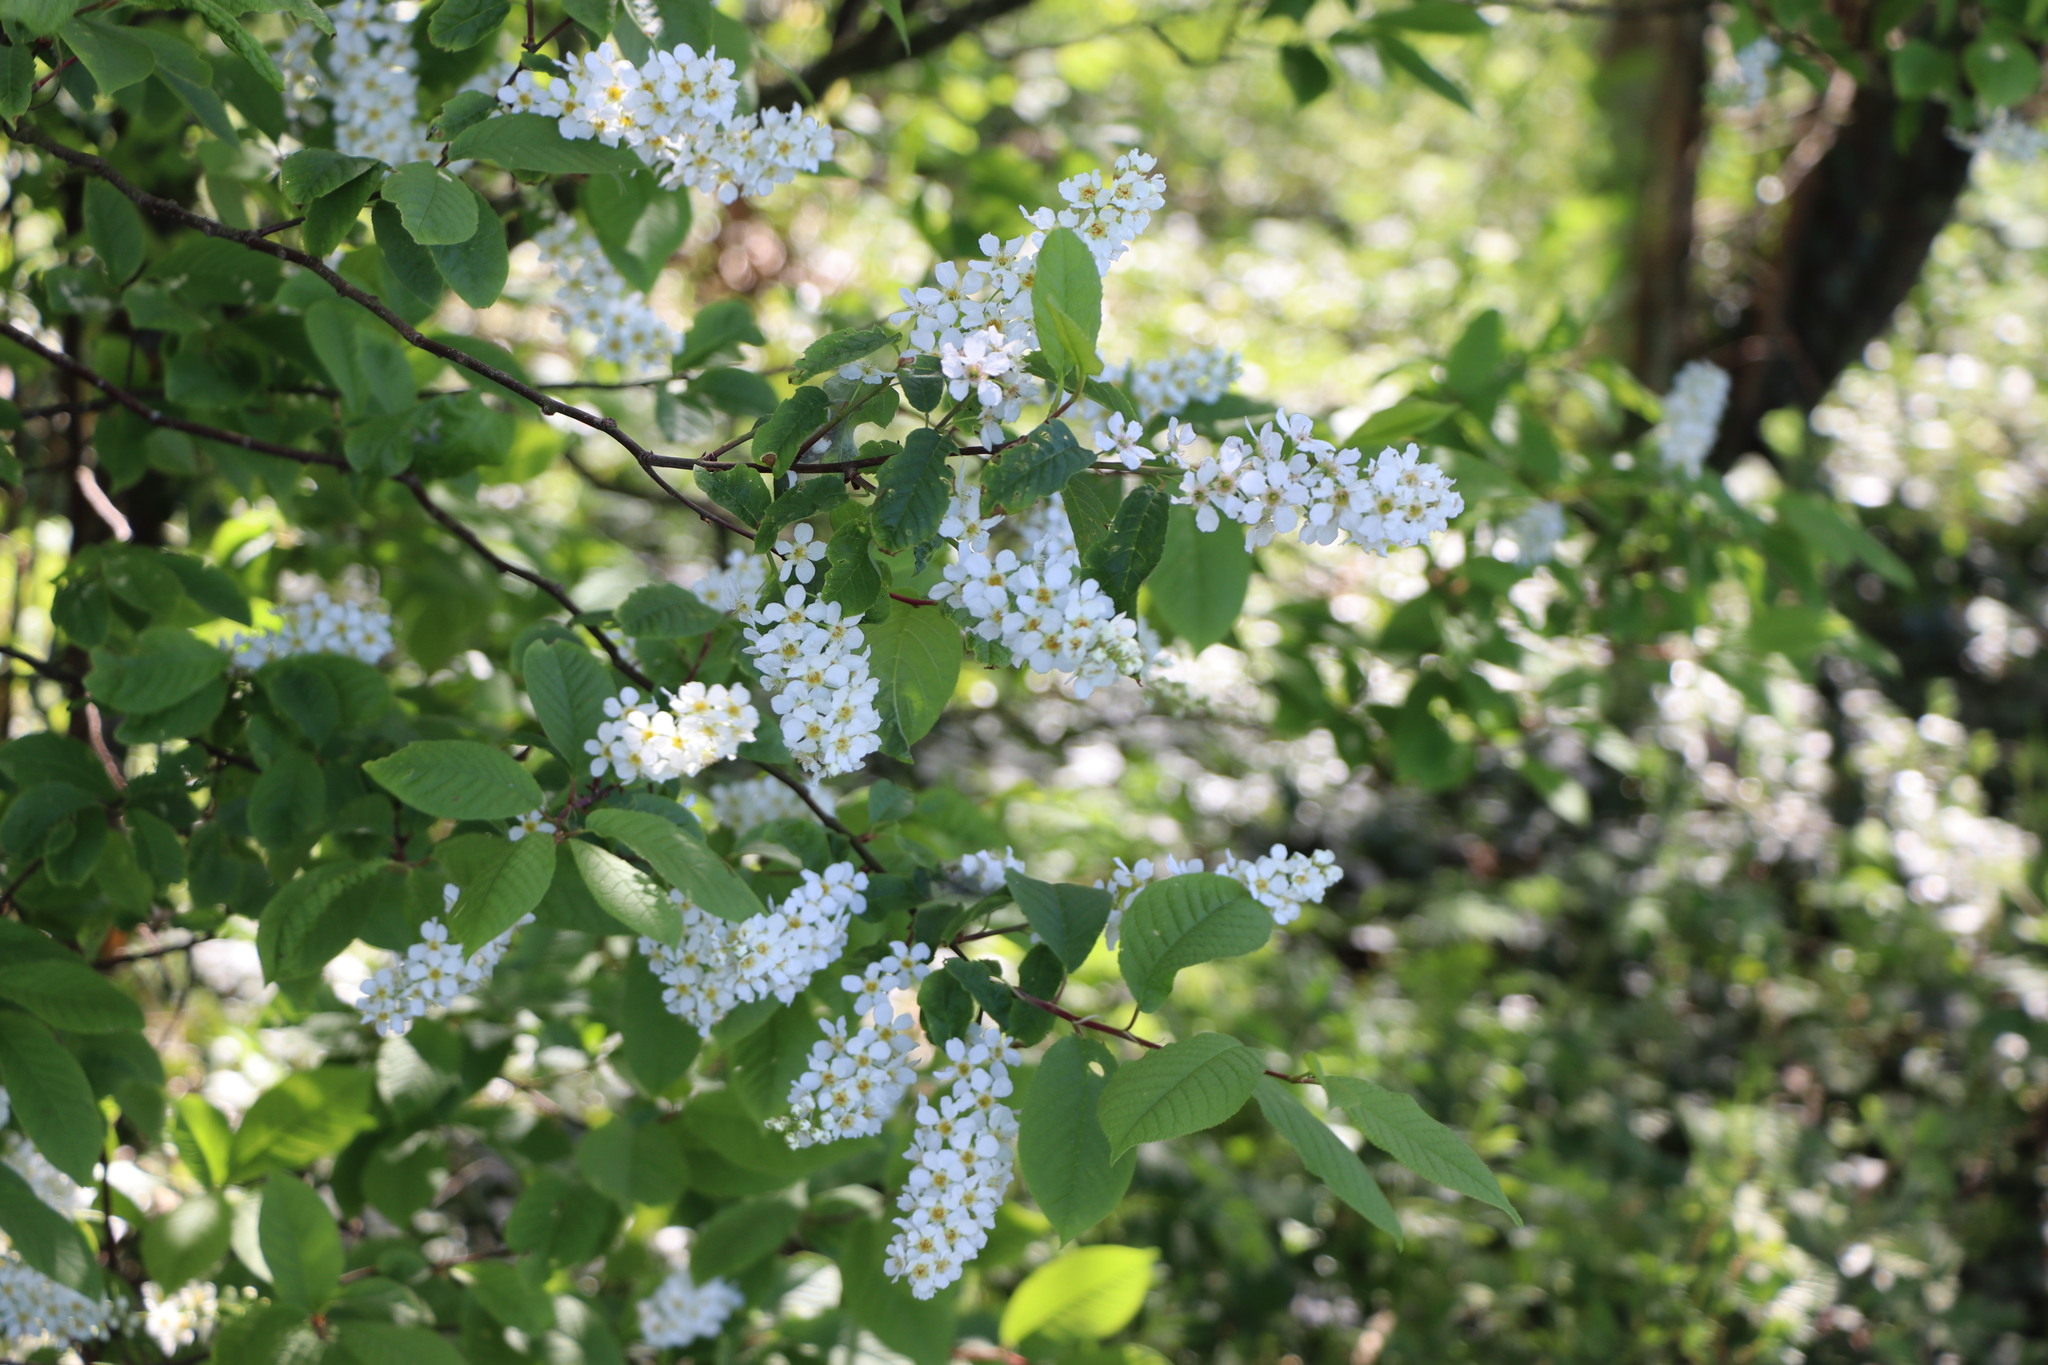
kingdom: Plantae
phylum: Tracheophyta
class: Magnoliopsida
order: Rosales
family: Rosaceae
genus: Prunus
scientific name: Prunus padus
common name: Bird cherry
